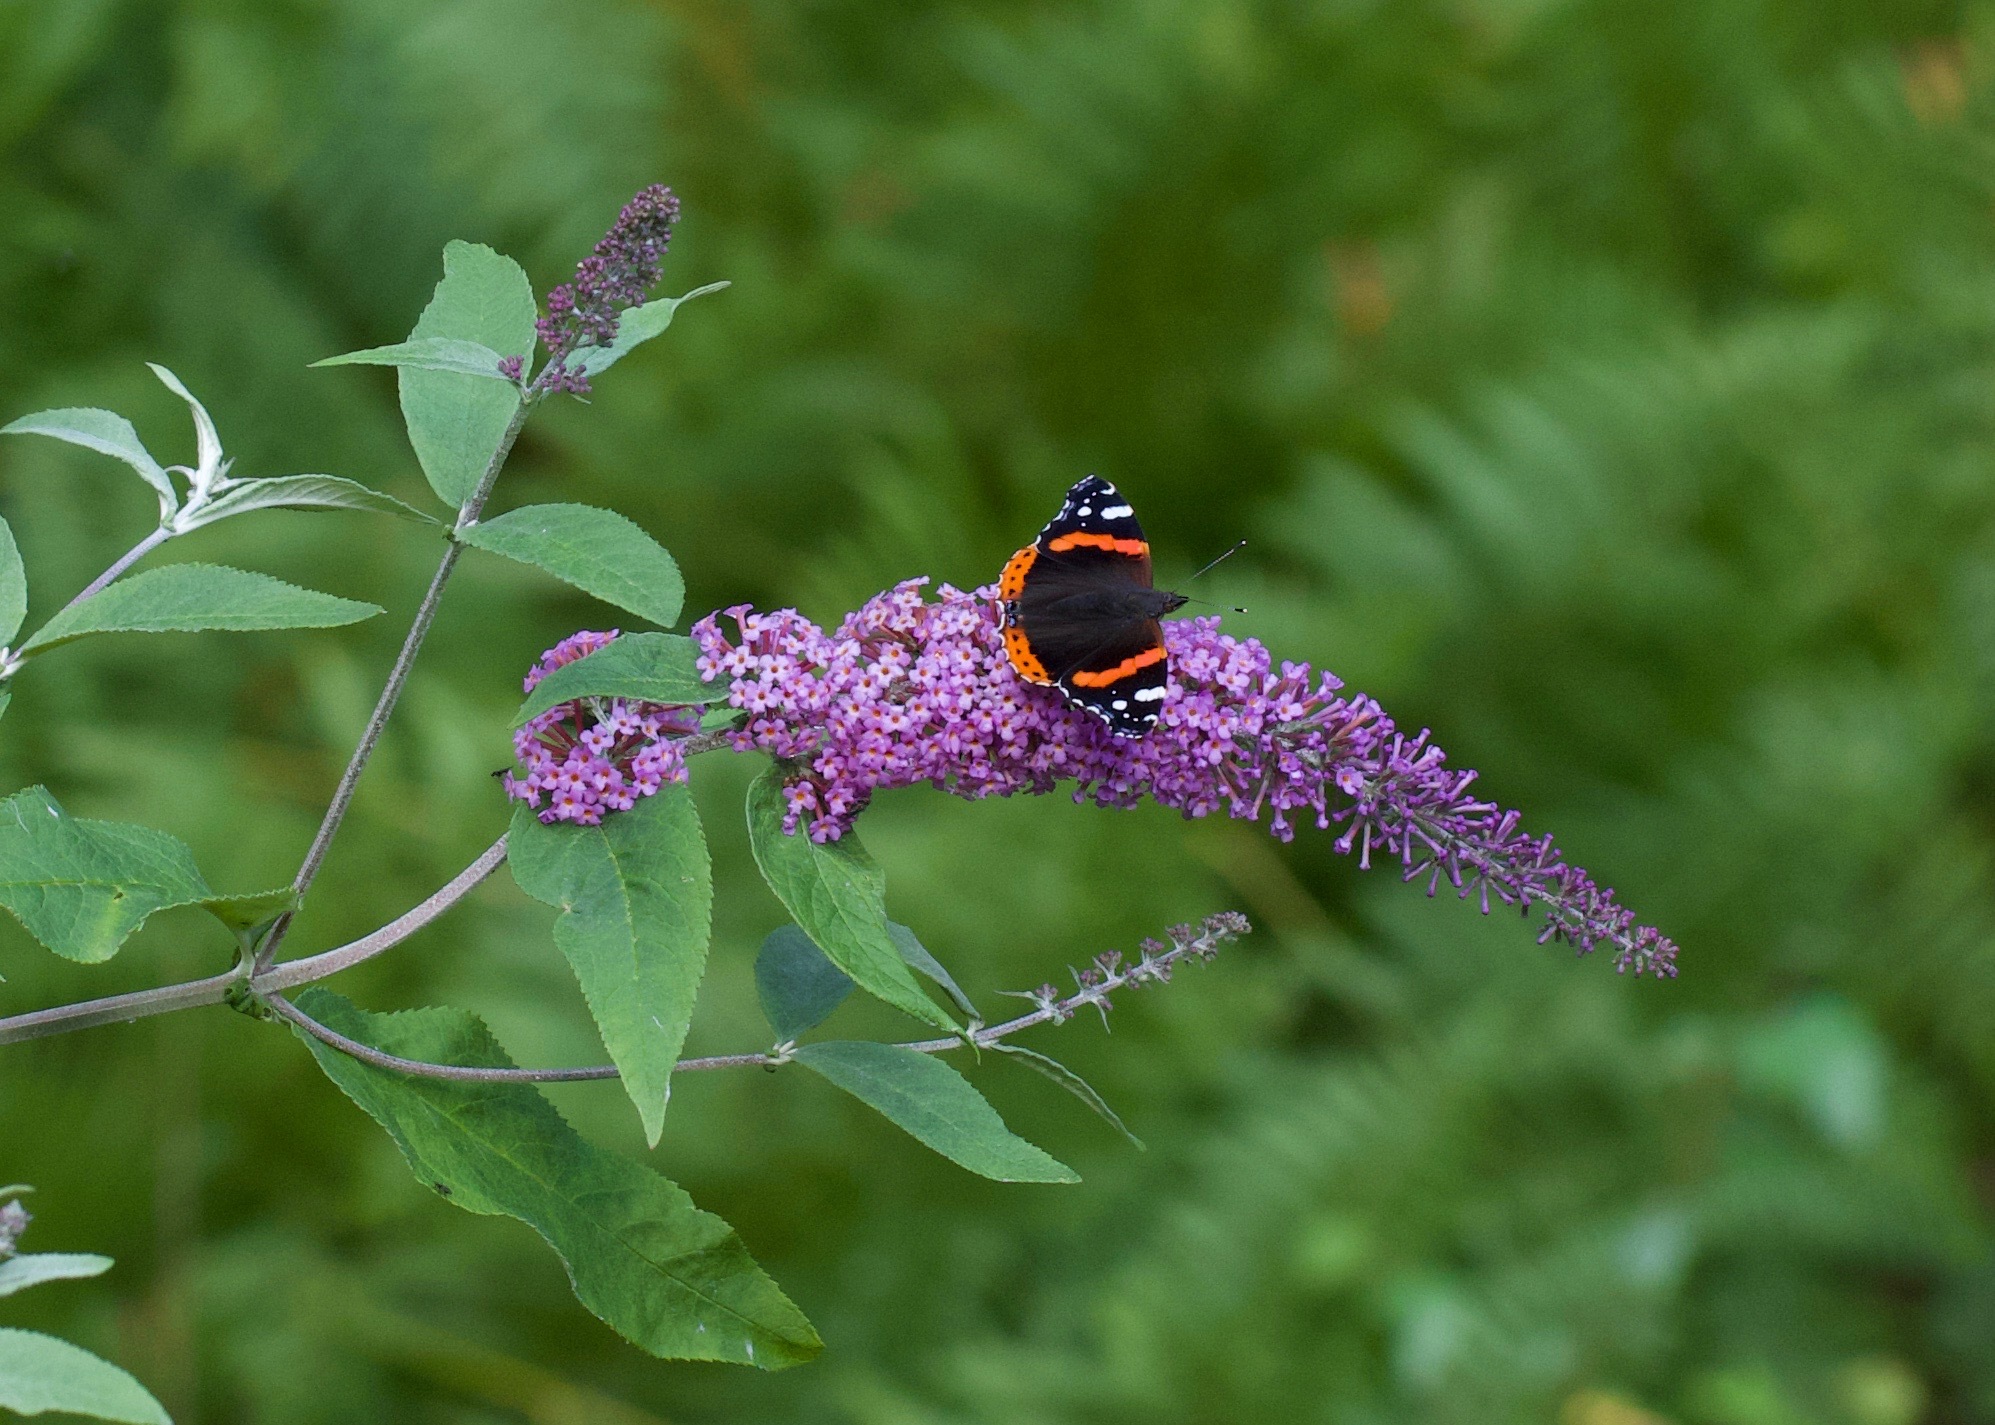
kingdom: Animalia
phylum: Arthropoda
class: Insecta
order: Lepidoptera
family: Nymphalidae
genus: Vanessa
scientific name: Vanessa atalanta
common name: Red admiral
